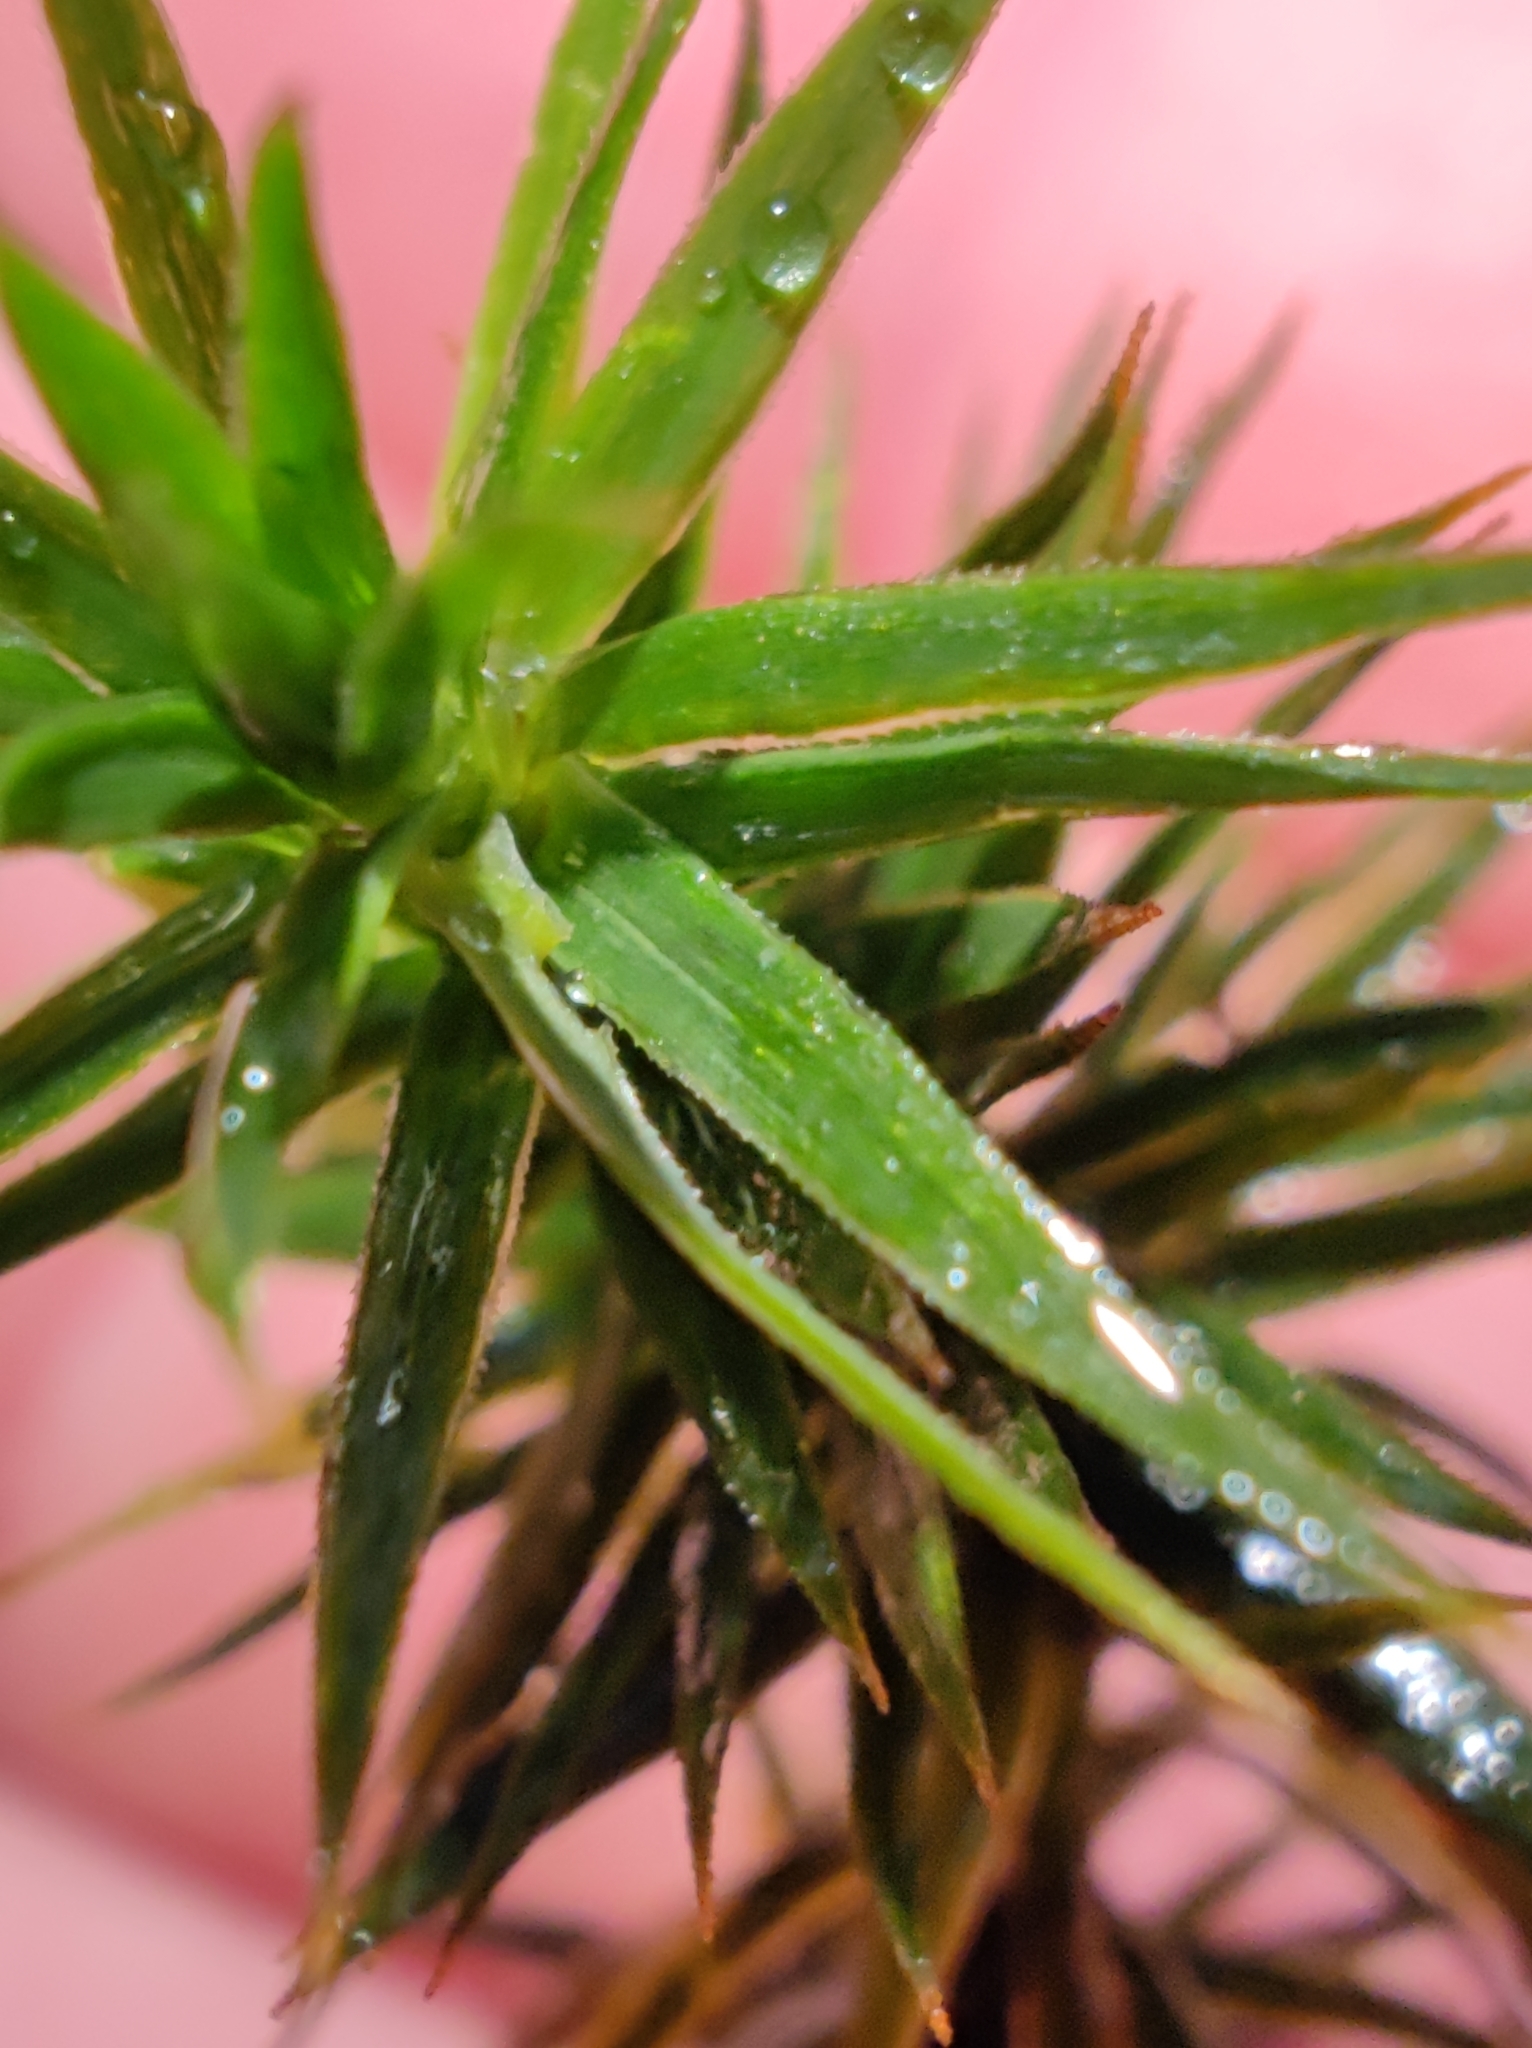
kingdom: Plantae
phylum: Bryophyta
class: Polytrichopsida
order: Polytrichales
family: Polytrichaceae
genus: Polytrichum
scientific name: Polytrichum formosum
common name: Bank haircap moss
